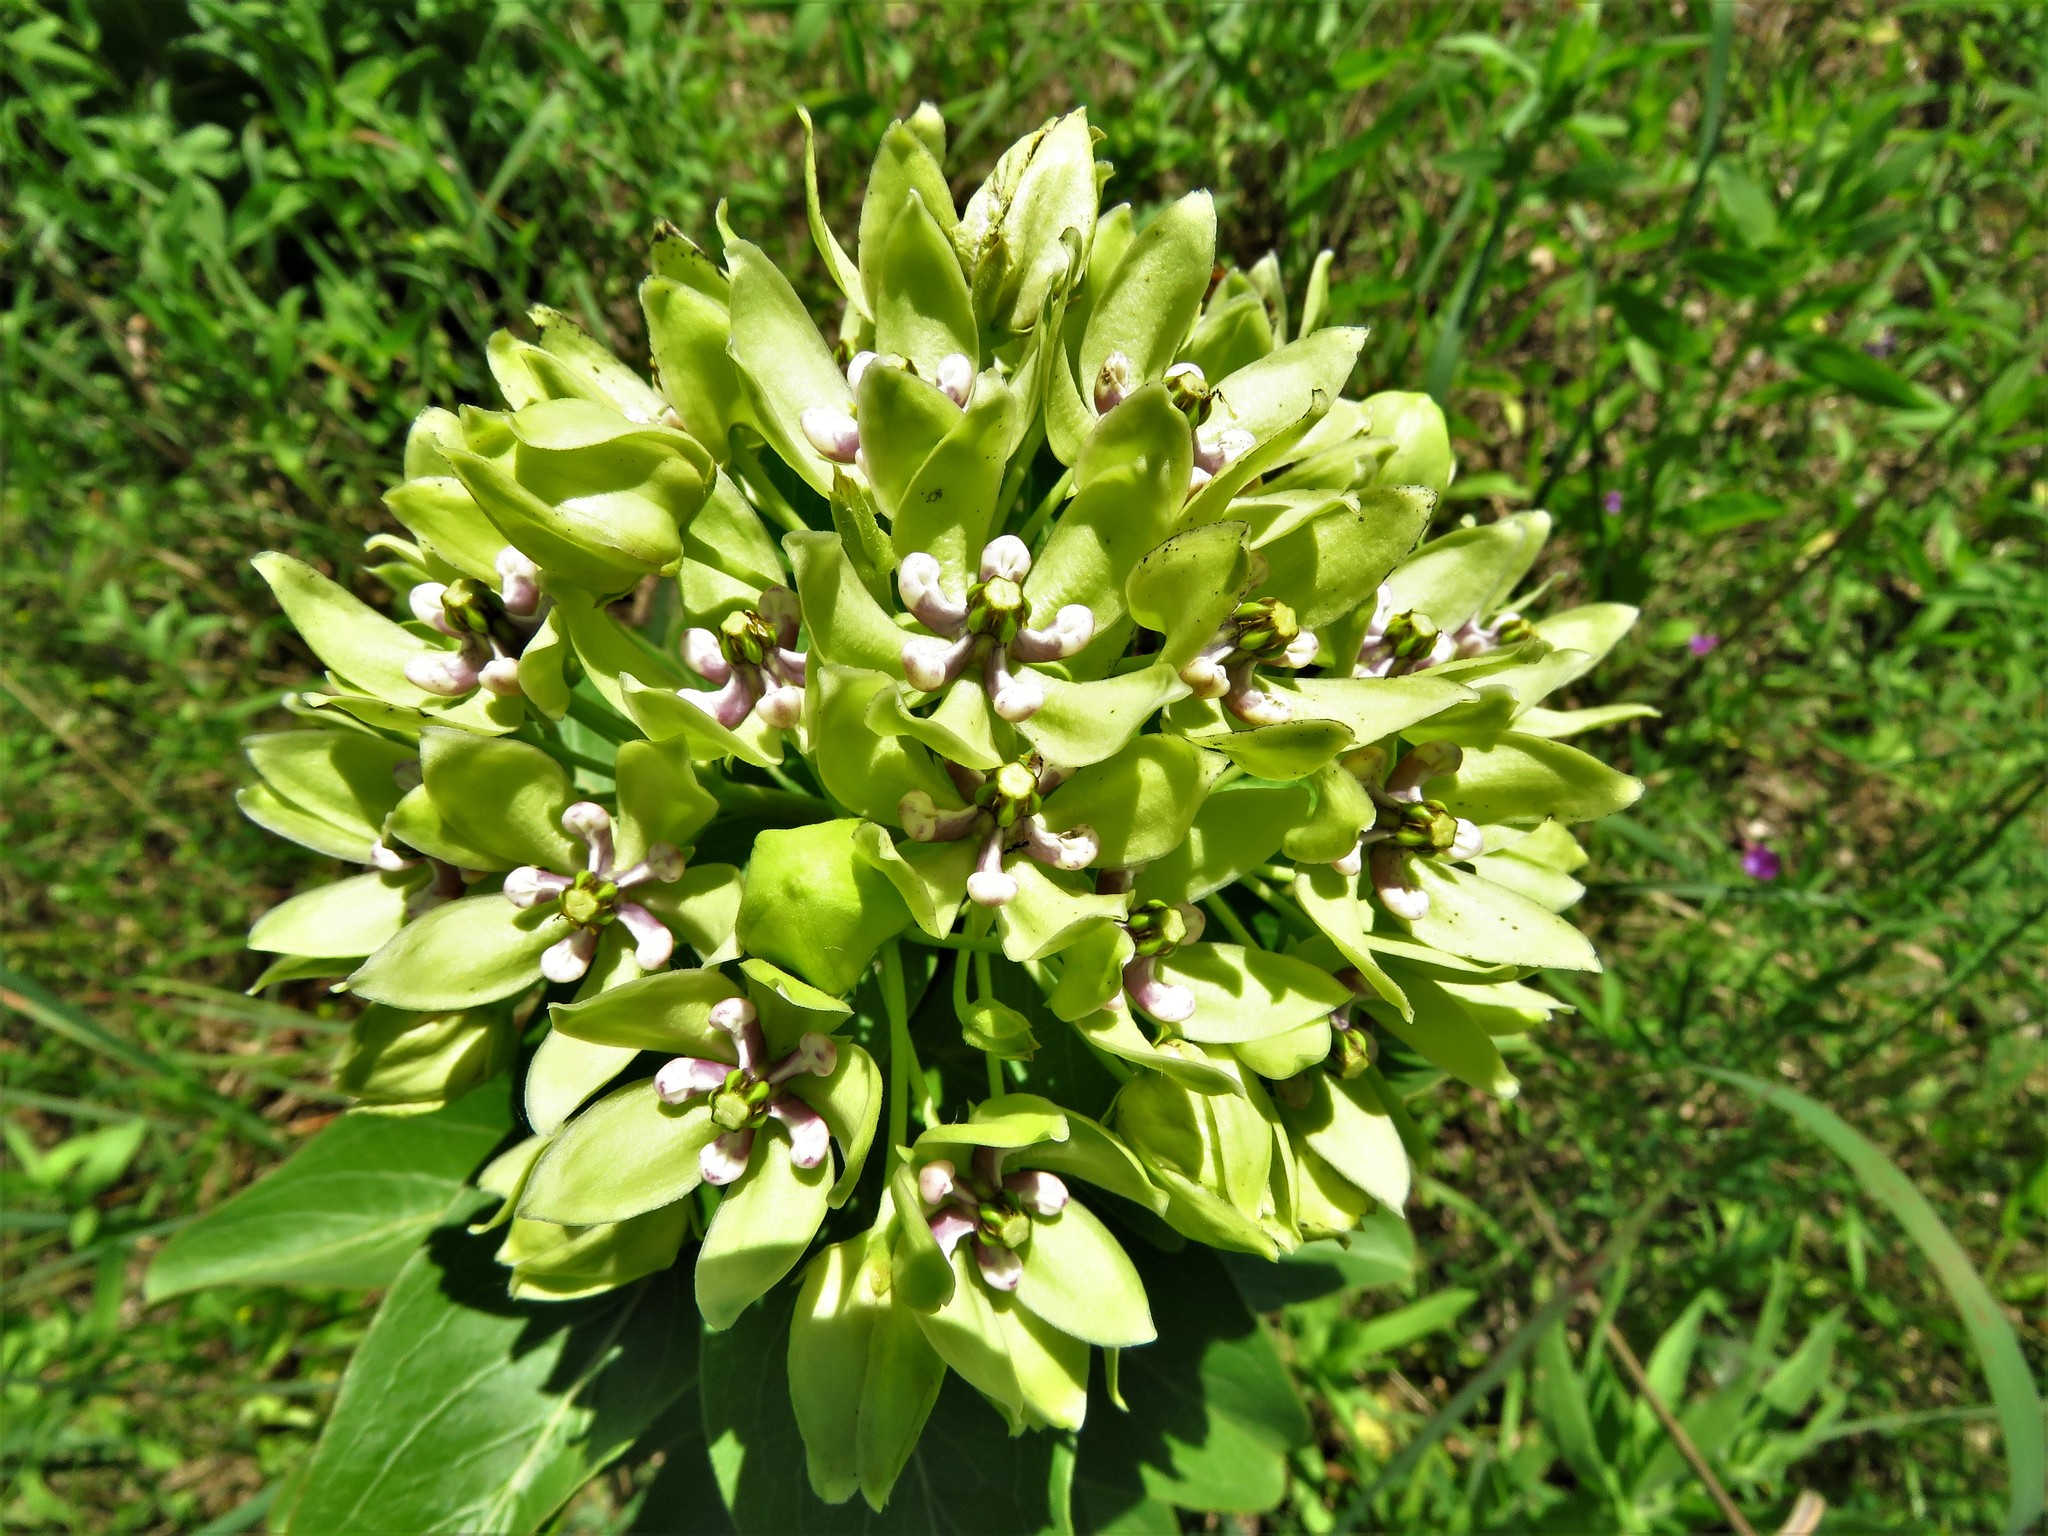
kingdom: Plantae
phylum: Tracheophyta
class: Magnoliopsida
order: Gentianales
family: Apocynaceae
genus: Asclepias
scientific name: Asclepias viridis
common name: Antelope-horns
